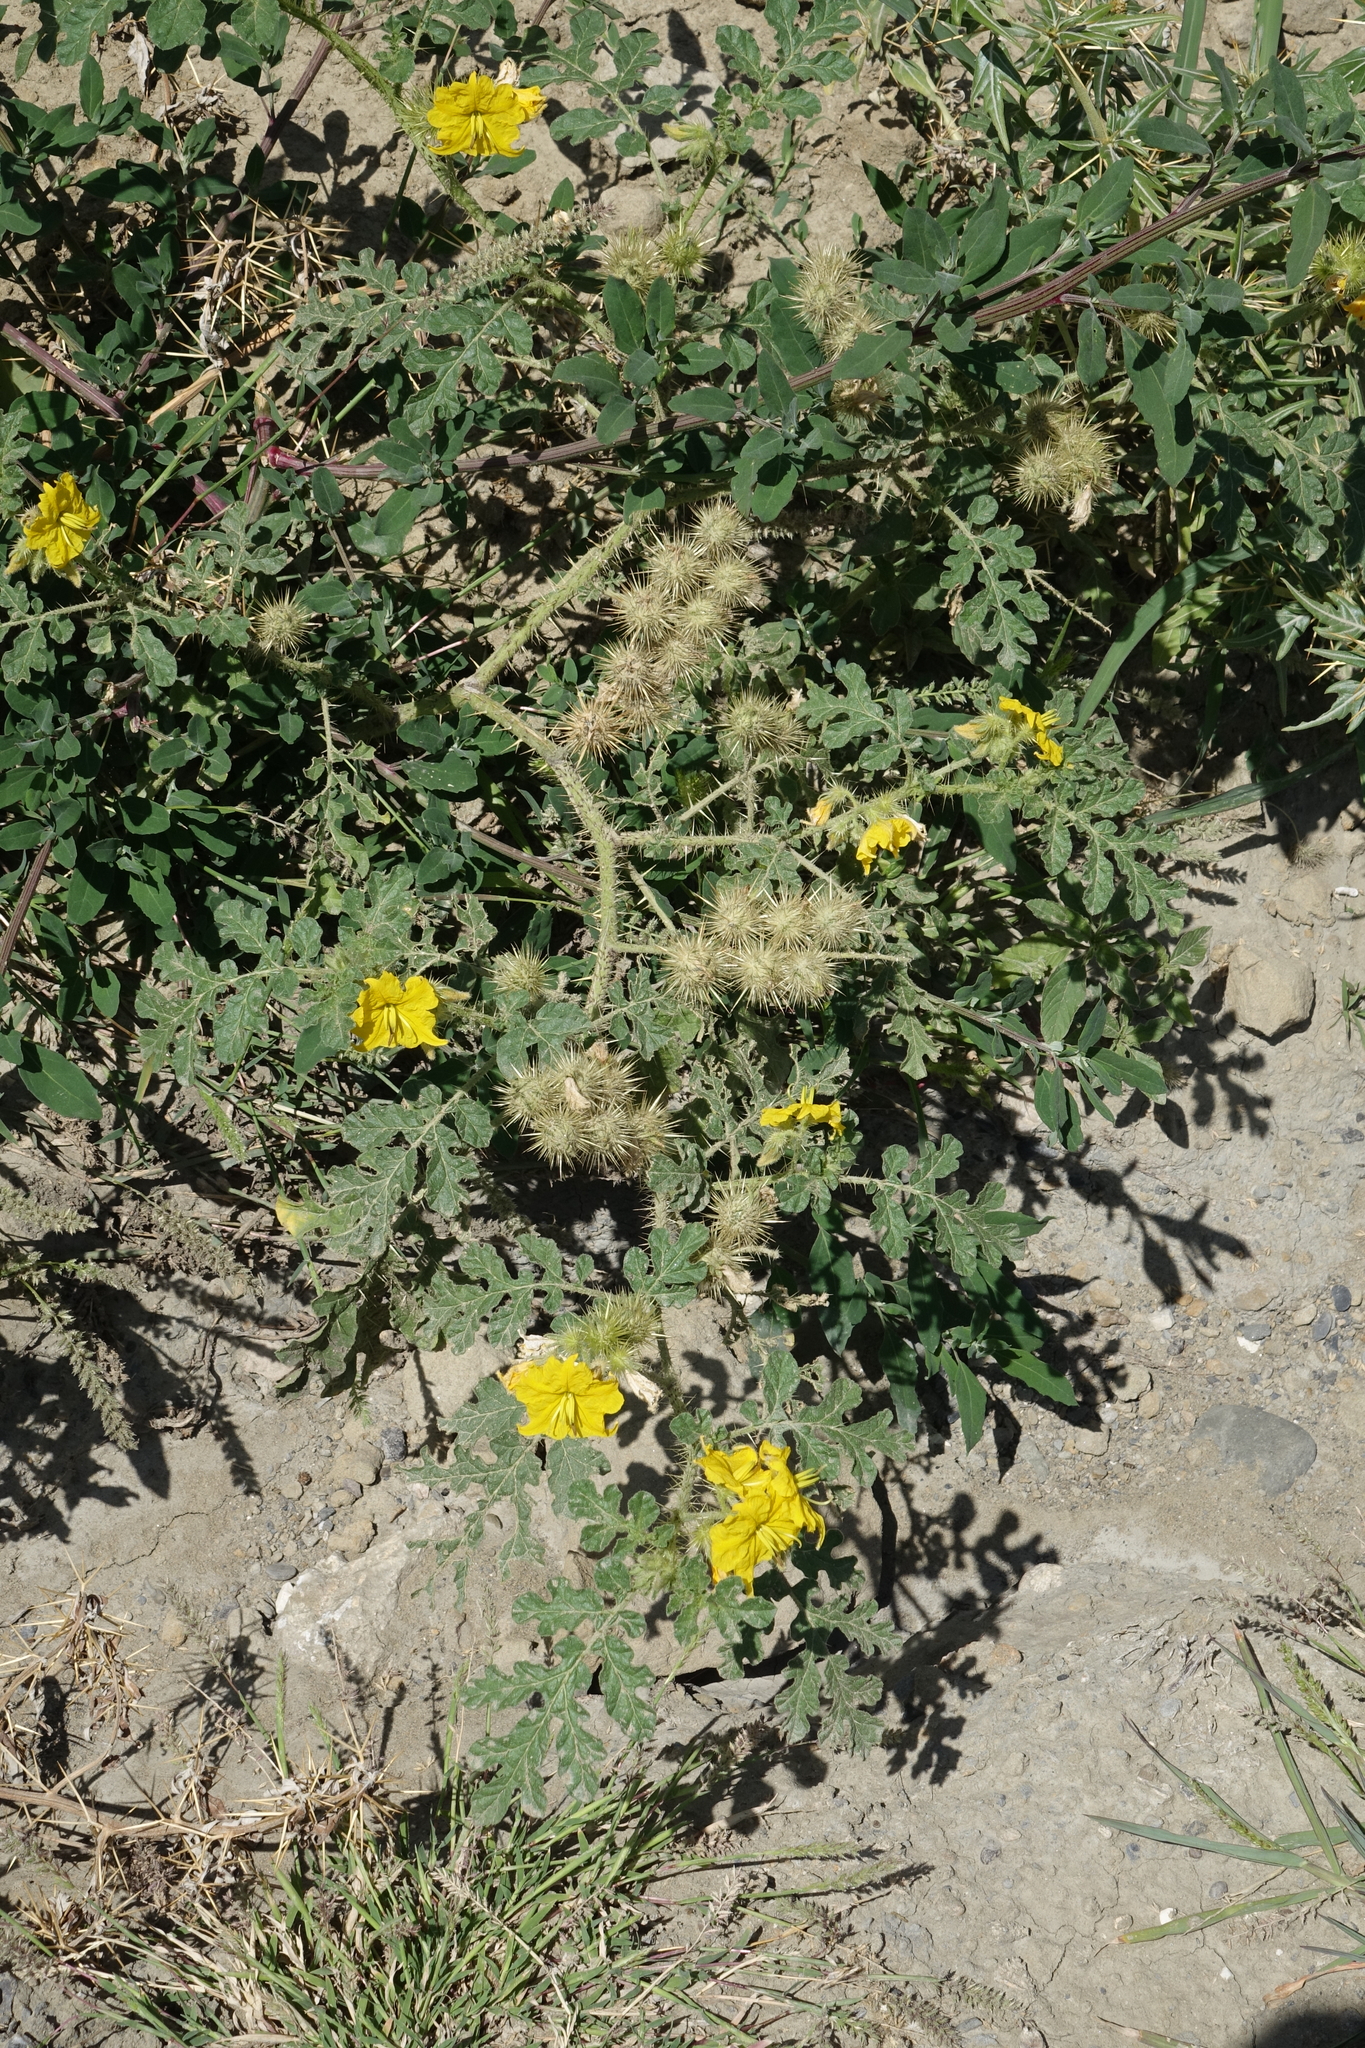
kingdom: Plantae
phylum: Tracheophyta
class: Magnoliopsida
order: Solanales
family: Solanaceae
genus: Solanum
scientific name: Solanum angustifolium
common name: Buffalobur nightshade
